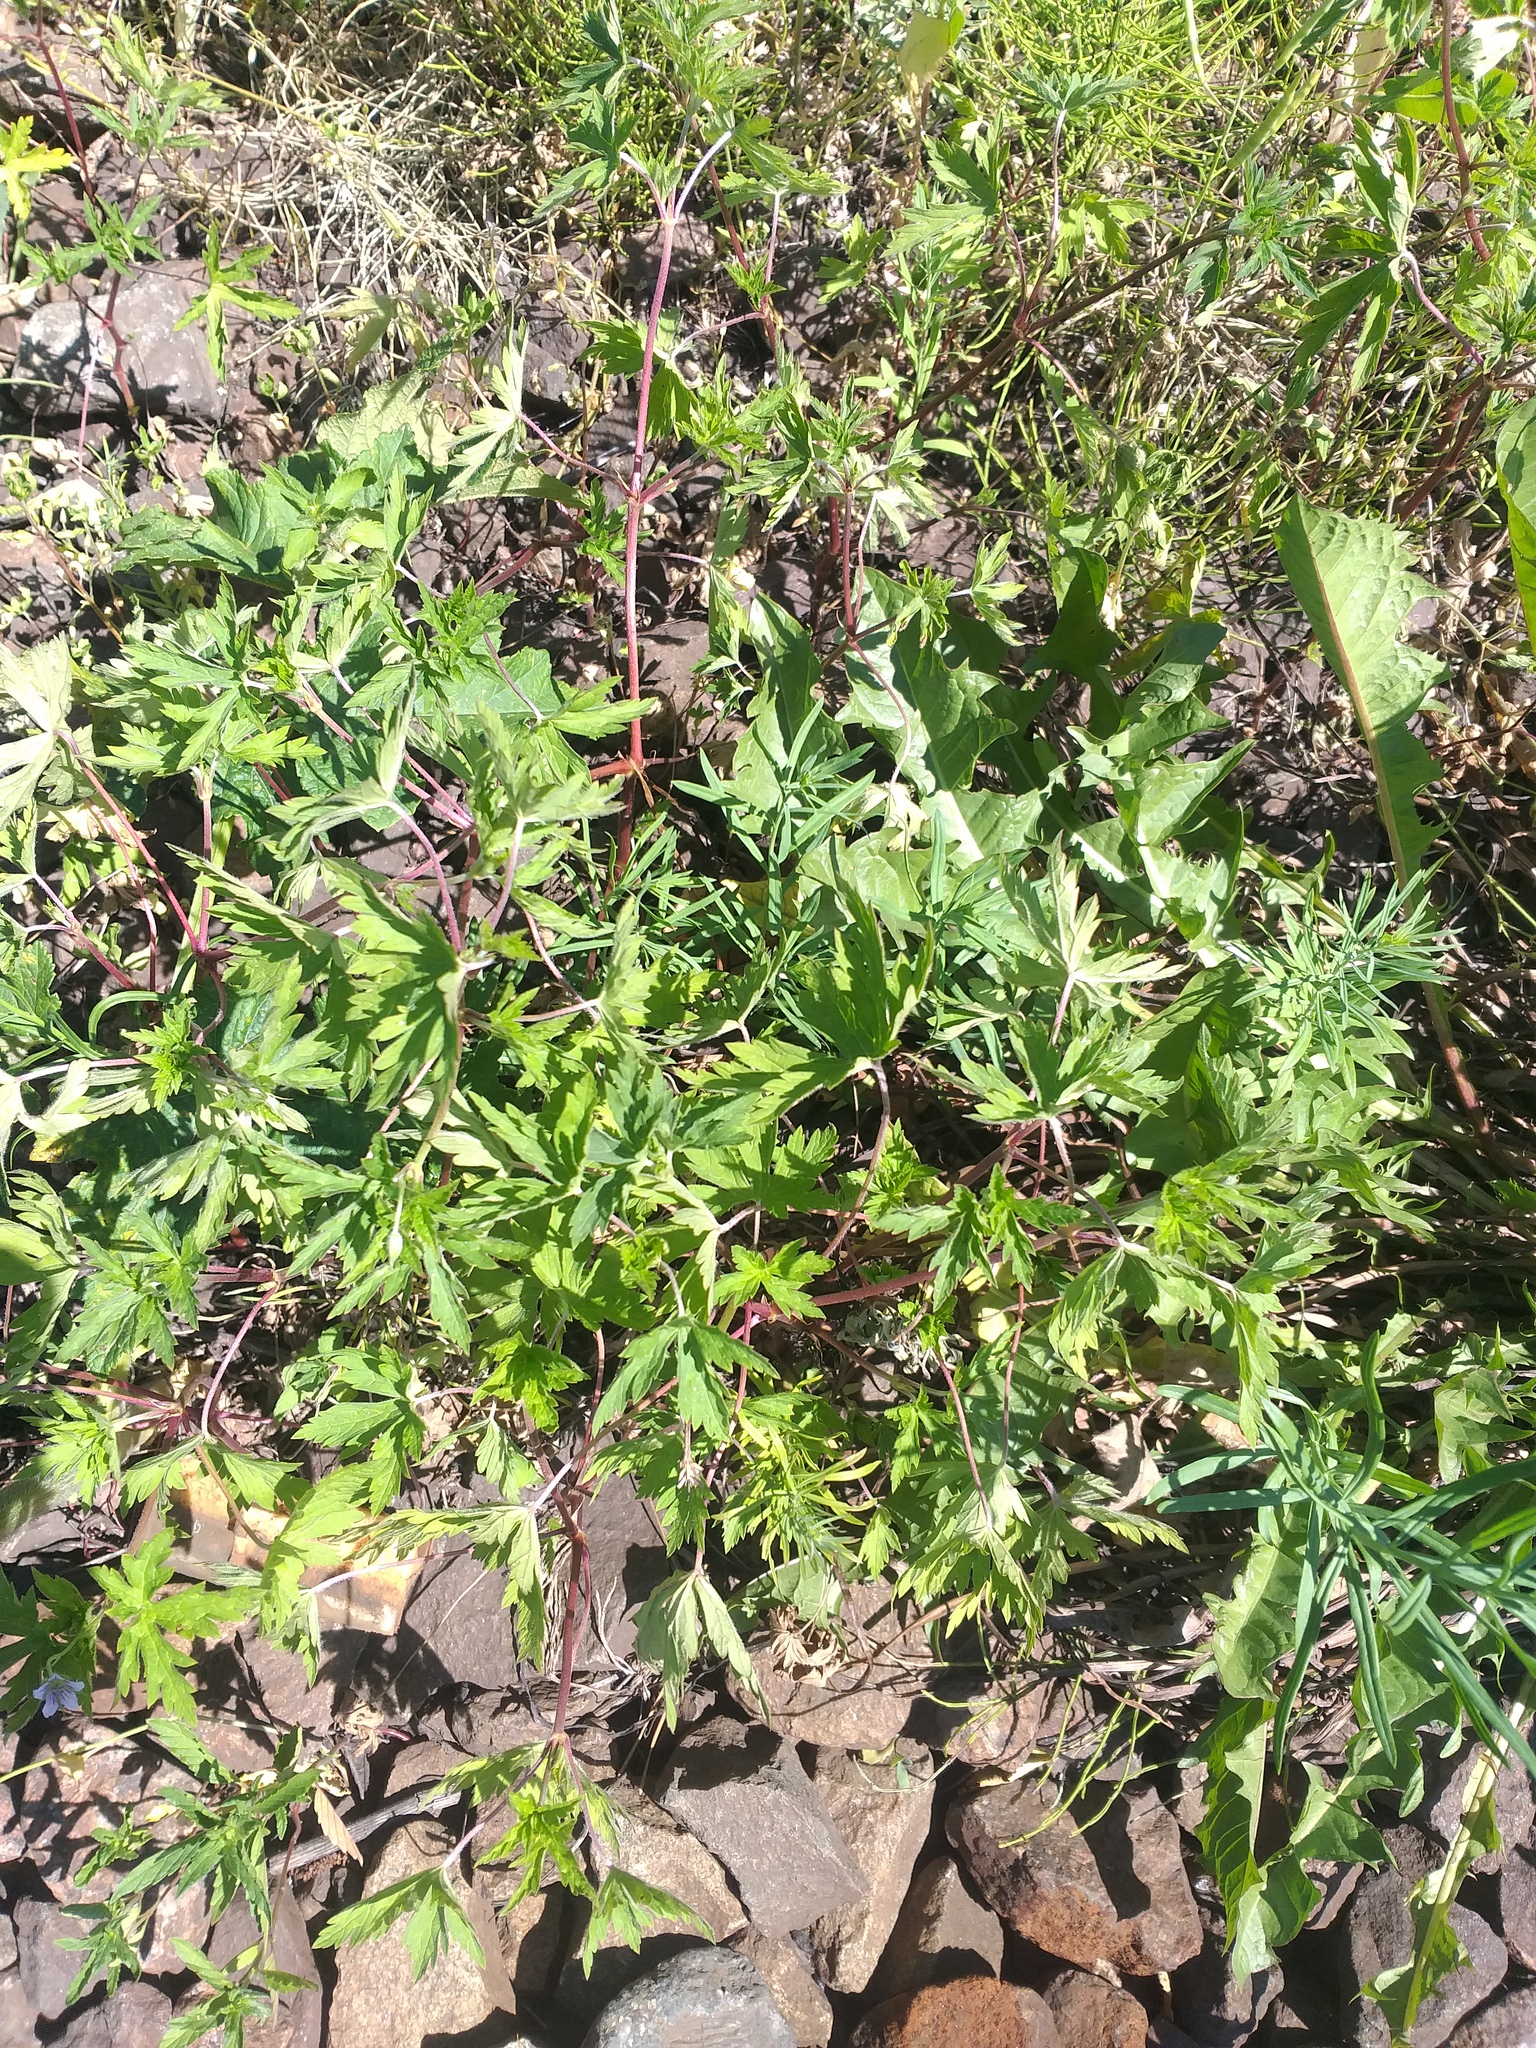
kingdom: Plantae
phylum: Tracheophyta
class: Magnoliopsida
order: Geraniales
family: Geraniaceae
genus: Geranium
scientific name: Geranium sibiricum
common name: Siberian crane's-bill
